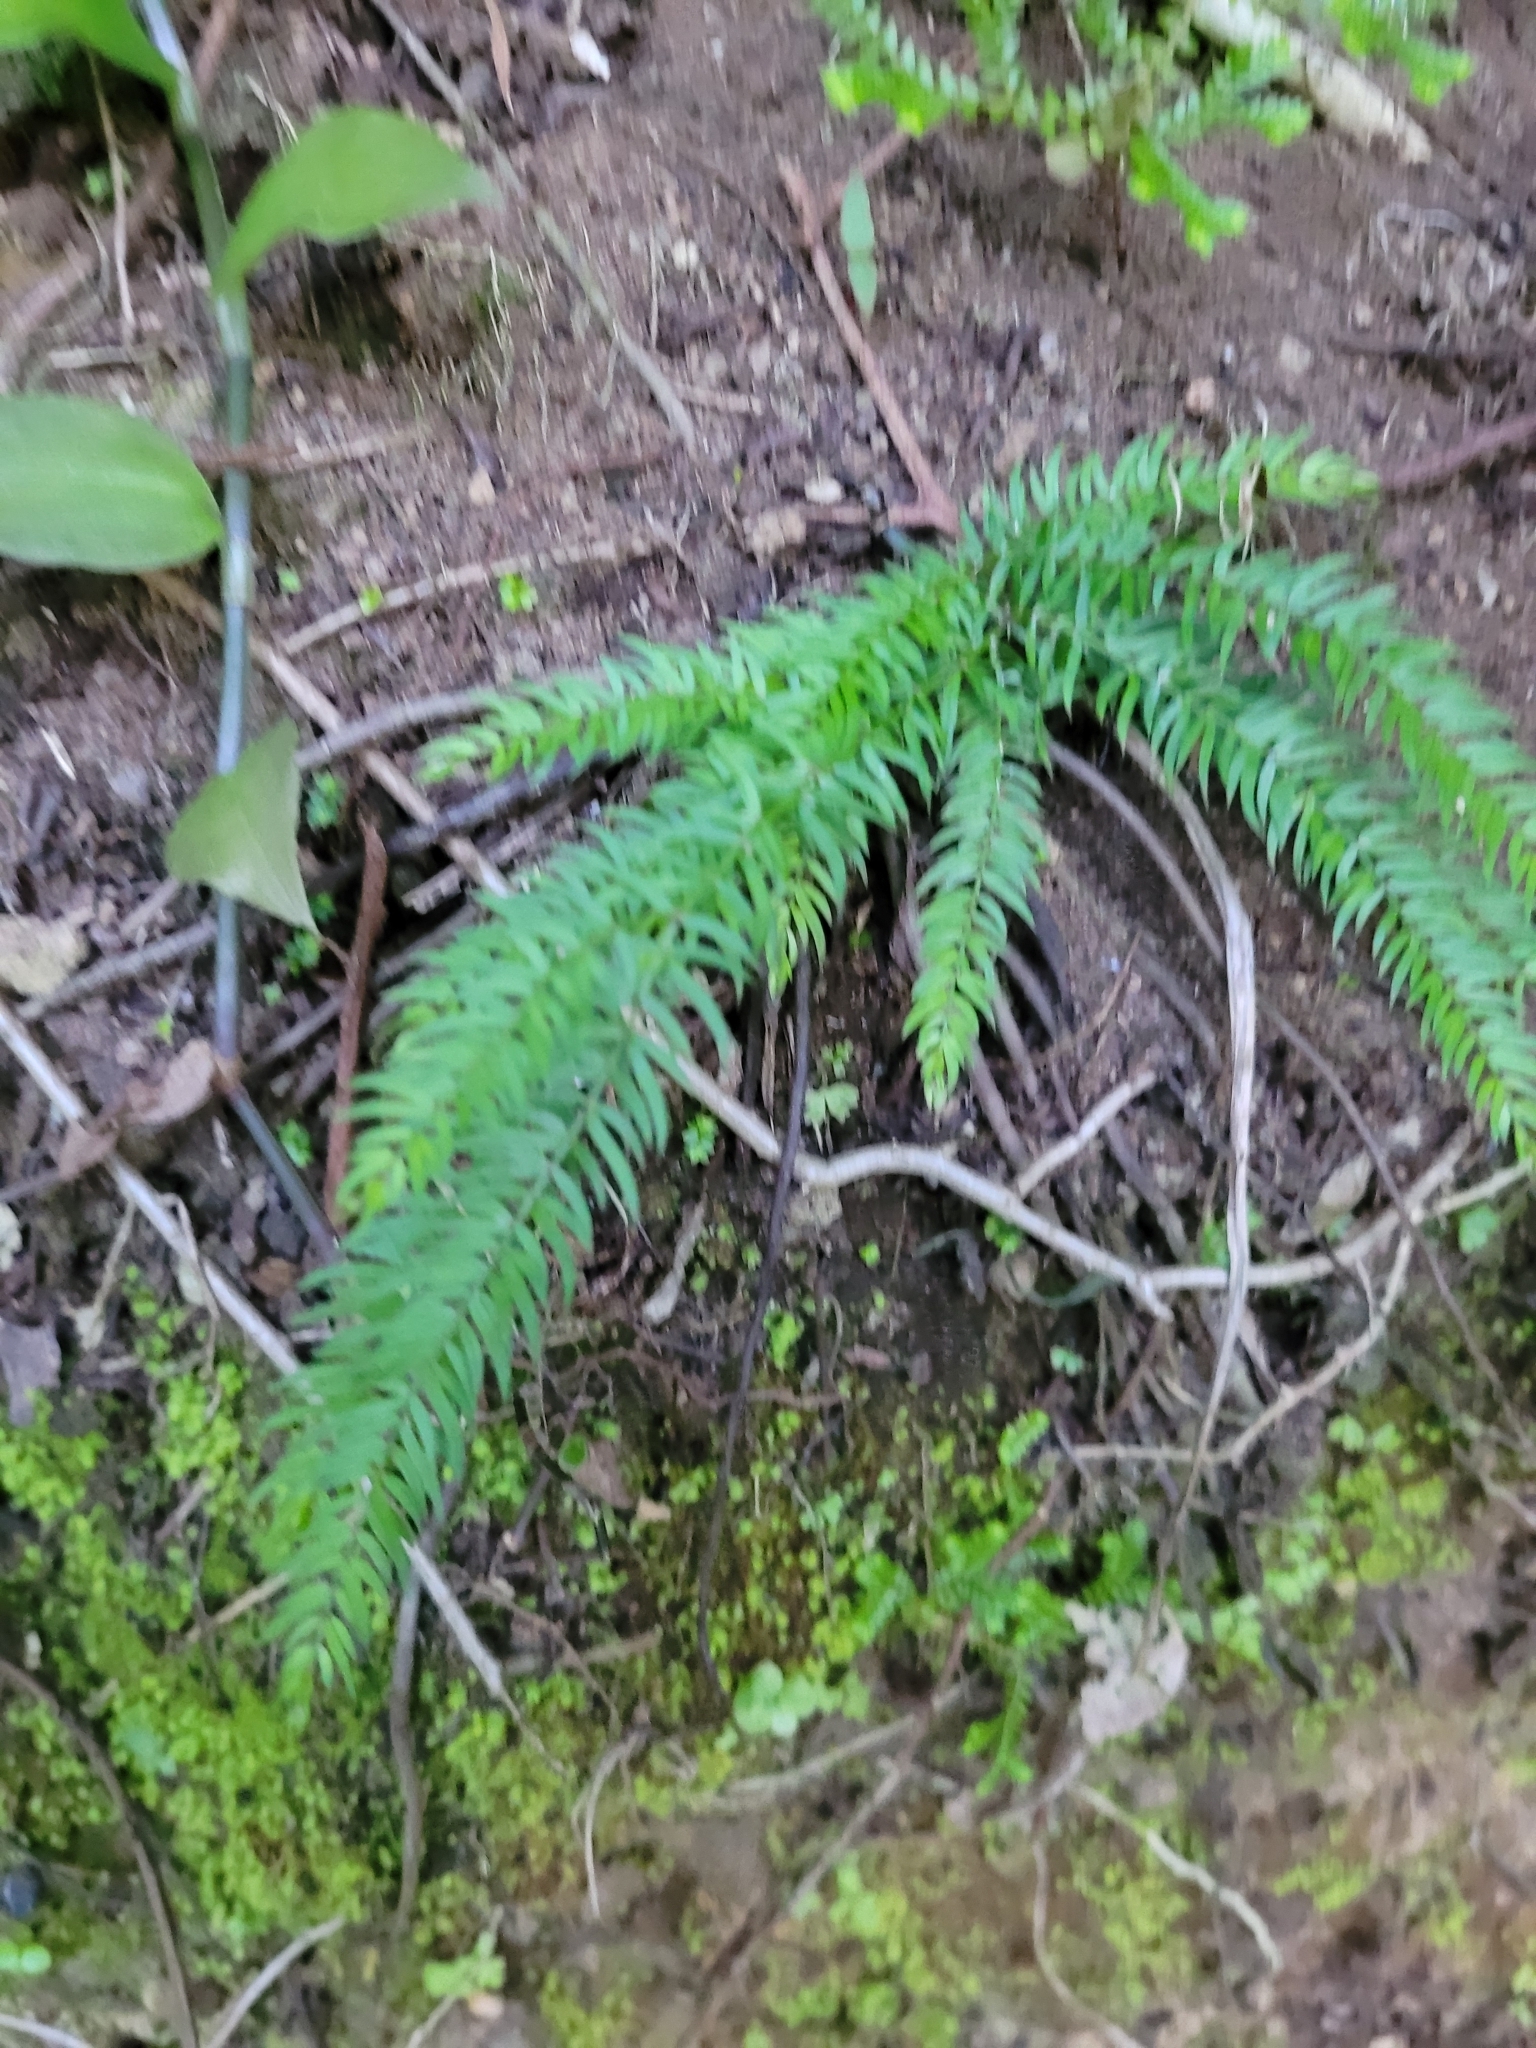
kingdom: Plantae
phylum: Tracheophyta
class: Liliopsida
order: Asparagales
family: Asparagaceae
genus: Asparagus
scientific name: Asparagus scandens
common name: Asparagus-fern
